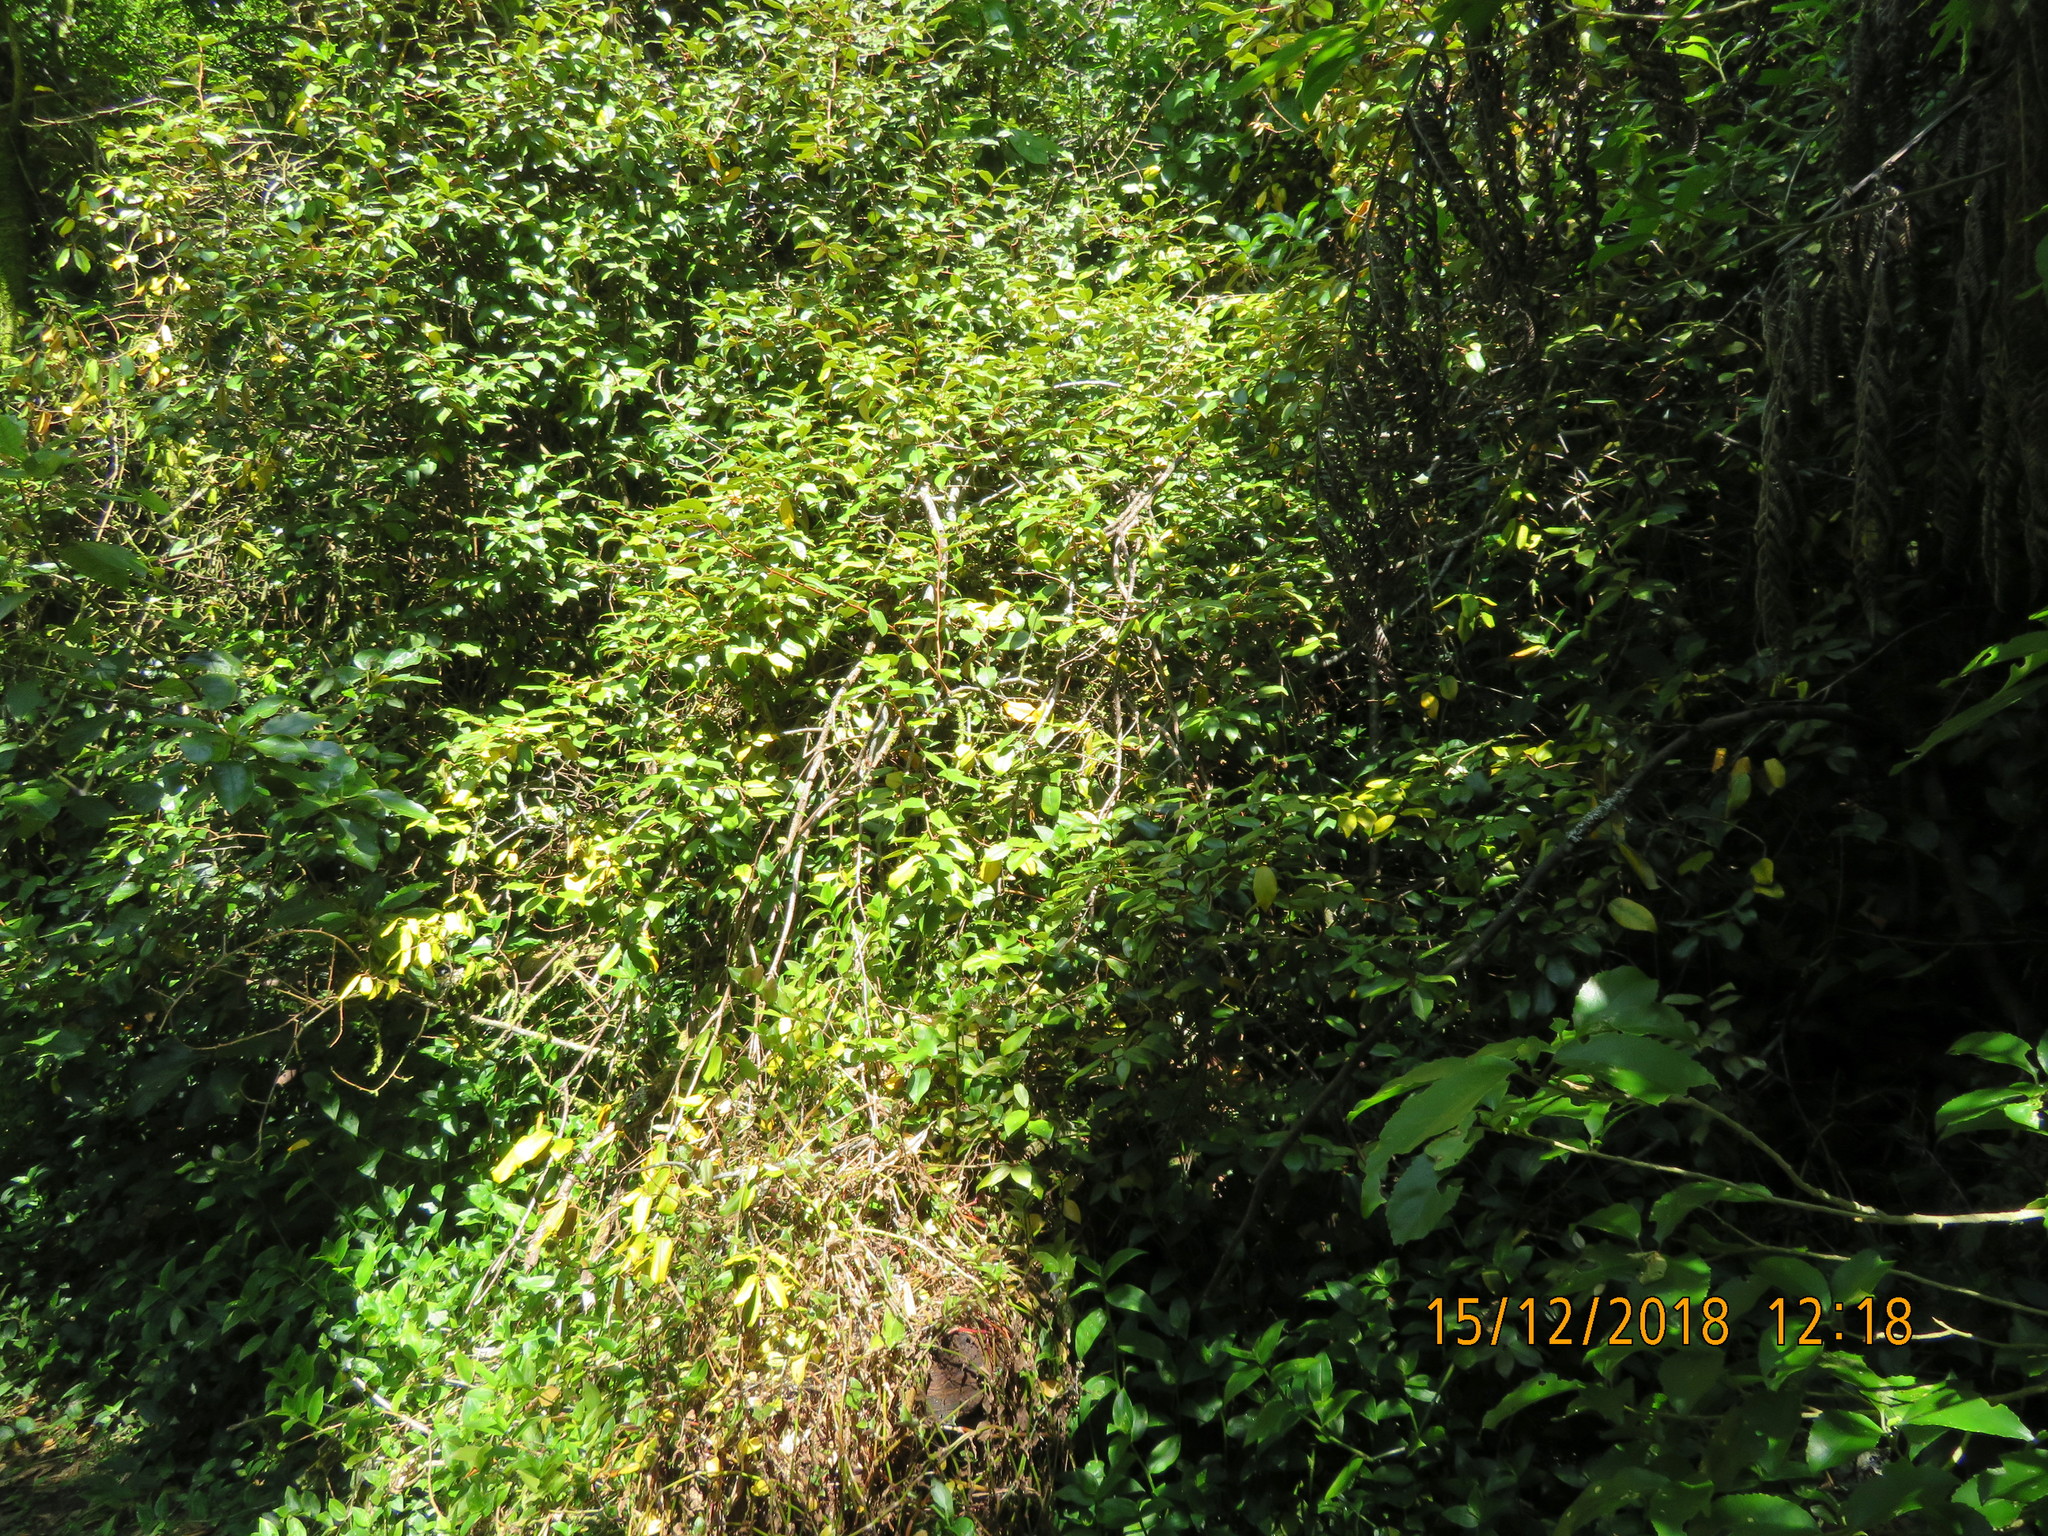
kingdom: Plantae
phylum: Tracheophyta
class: Magnoliopsida
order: Rosales
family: Elaeagnaceae
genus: Elaeagnus
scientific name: Elaeagnus reflexa
